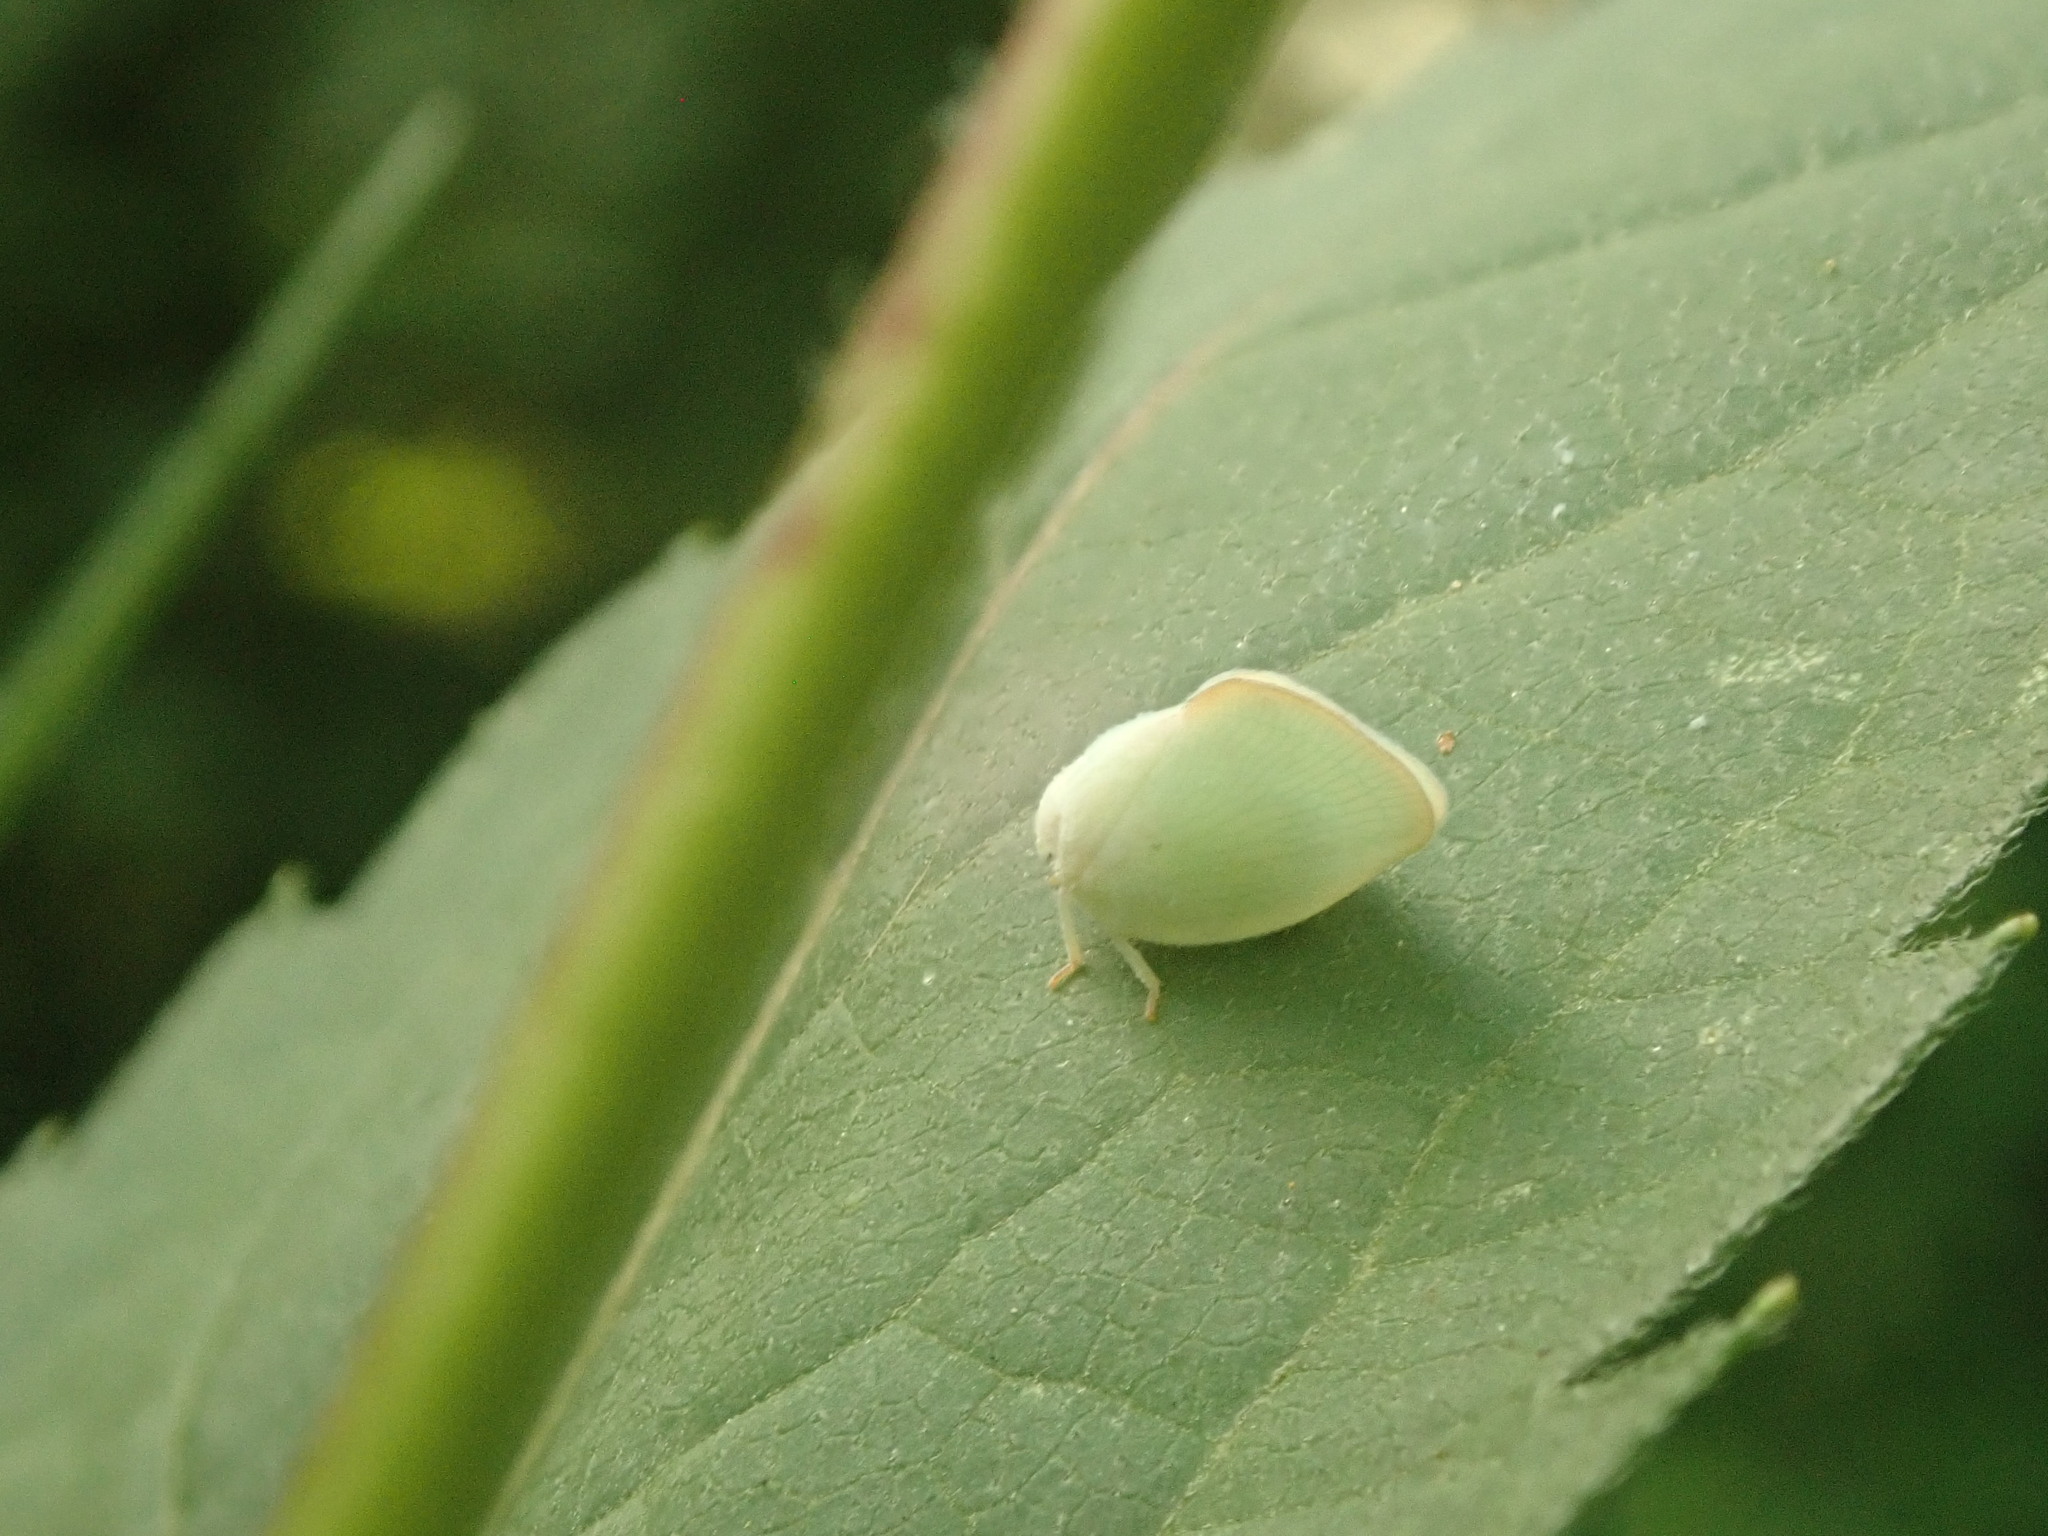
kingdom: Animalia
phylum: Arthropoda
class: Insecta
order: Hemiptera
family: Flatidae
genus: Ormenoides
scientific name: Ormenoides venusta
